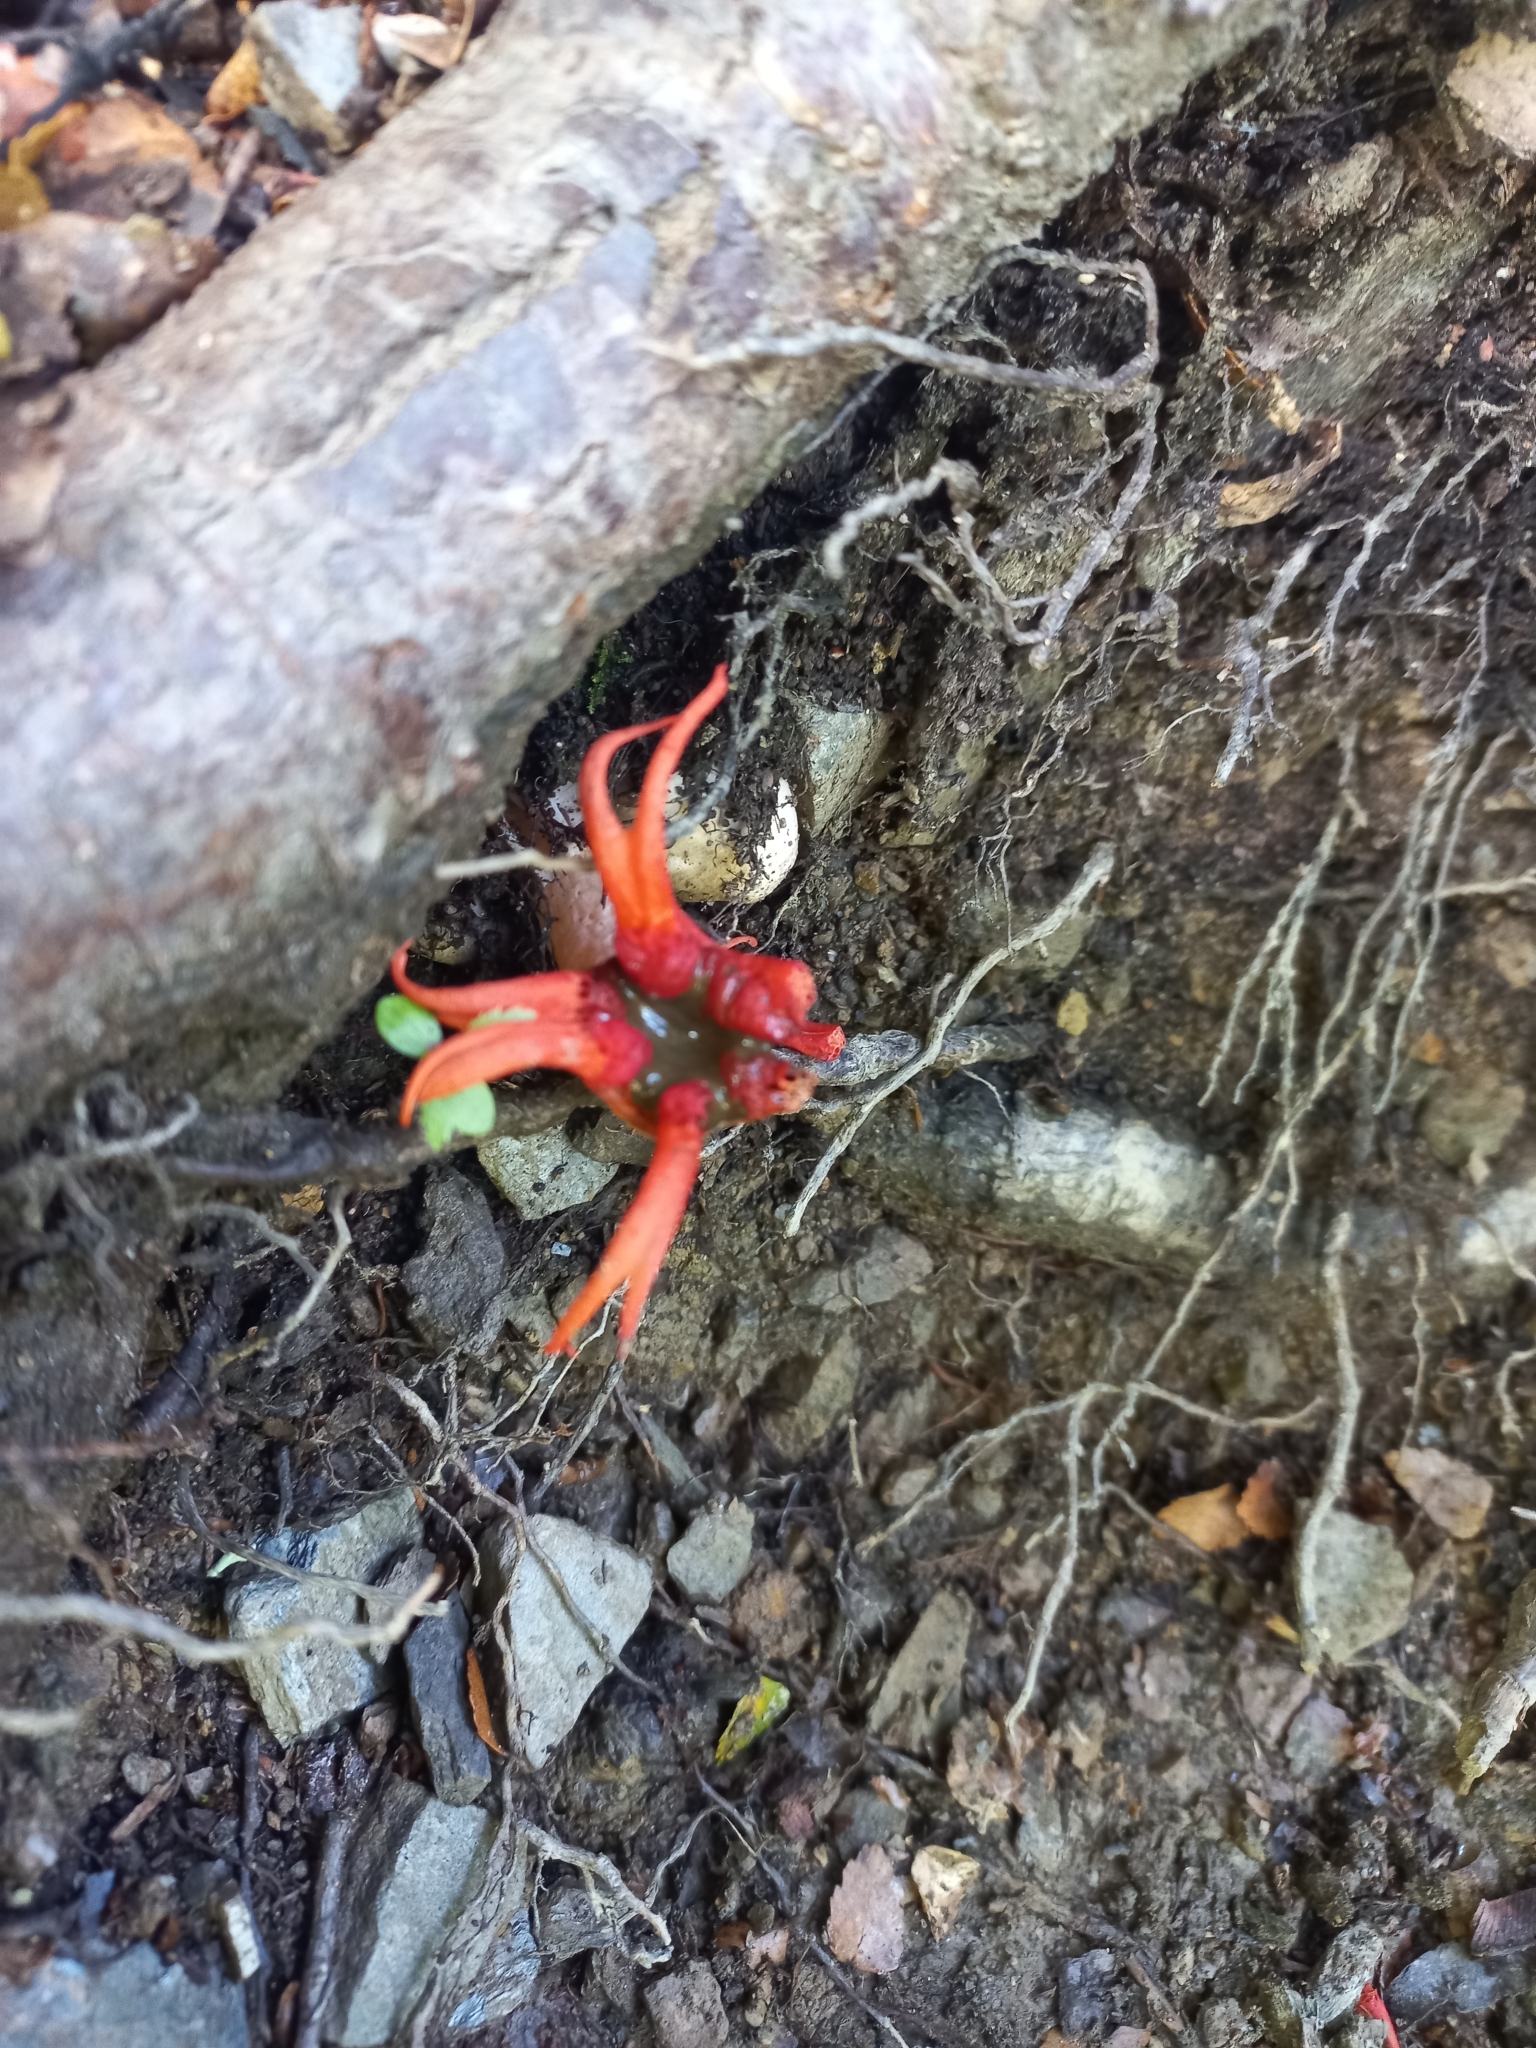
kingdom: Fungi
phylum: Basidiomycota
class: Agaricomycetes
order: Phallales
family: Phallaceae
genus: Aseroe
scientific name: Aseroe rubra
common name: Starfish fungus
